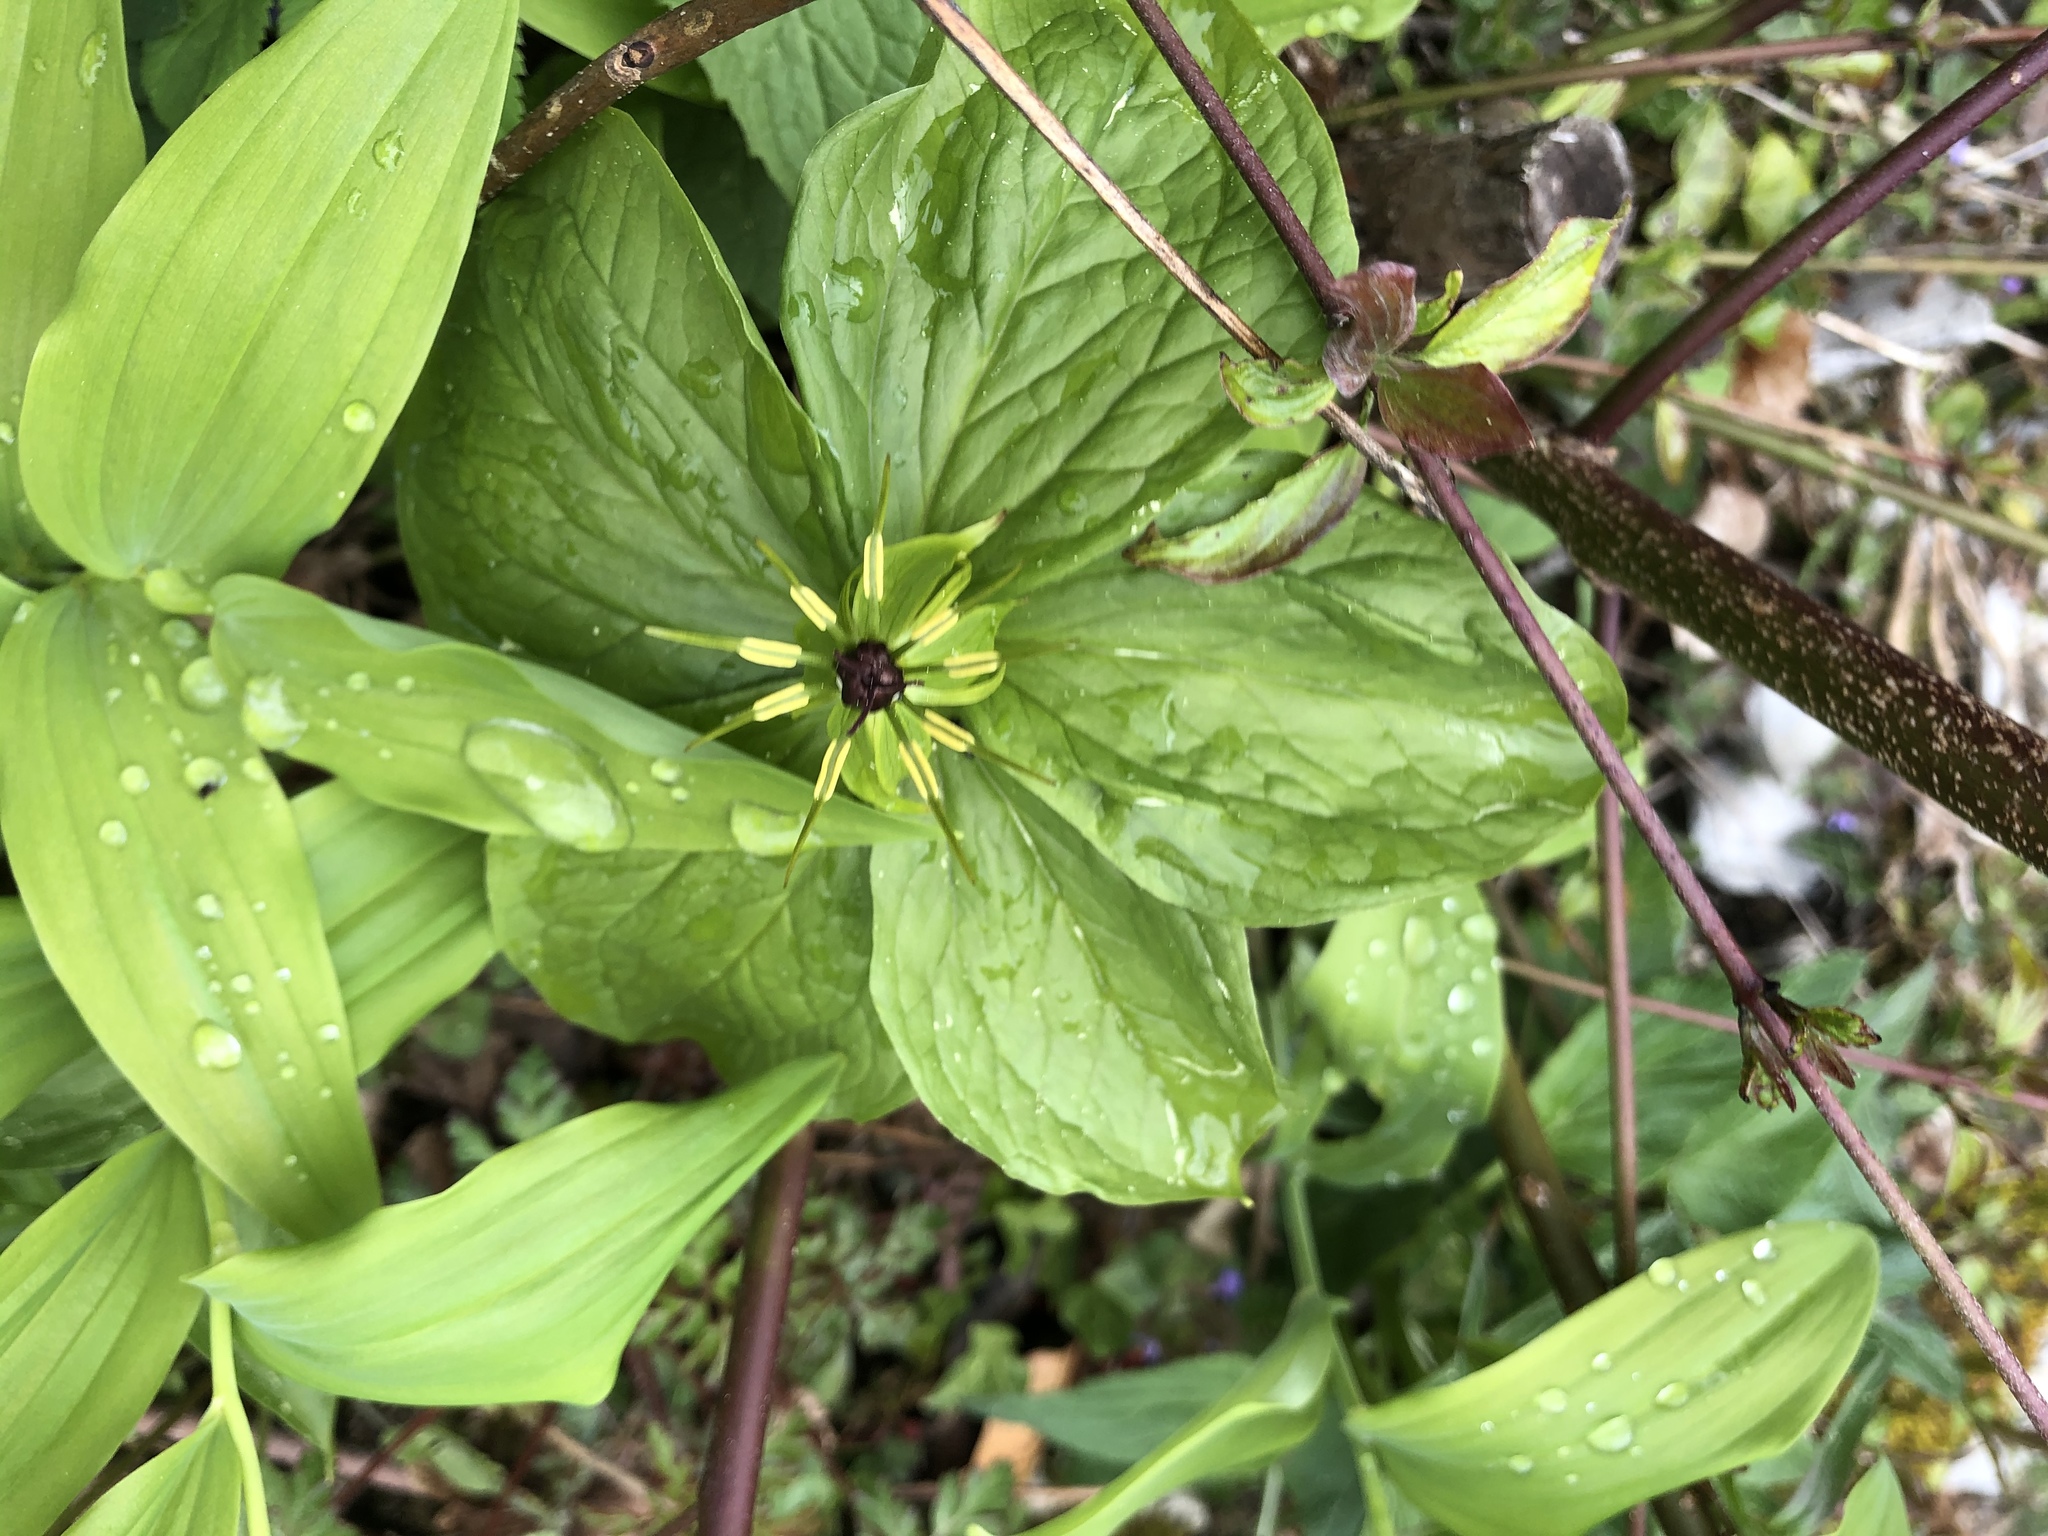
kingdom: Plantae
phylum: Tracheophyta
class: Liliopsida
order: Liliales
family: Melanthiaceae
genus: Paris
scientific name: Paris quadrifolia
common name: Herb-paris
